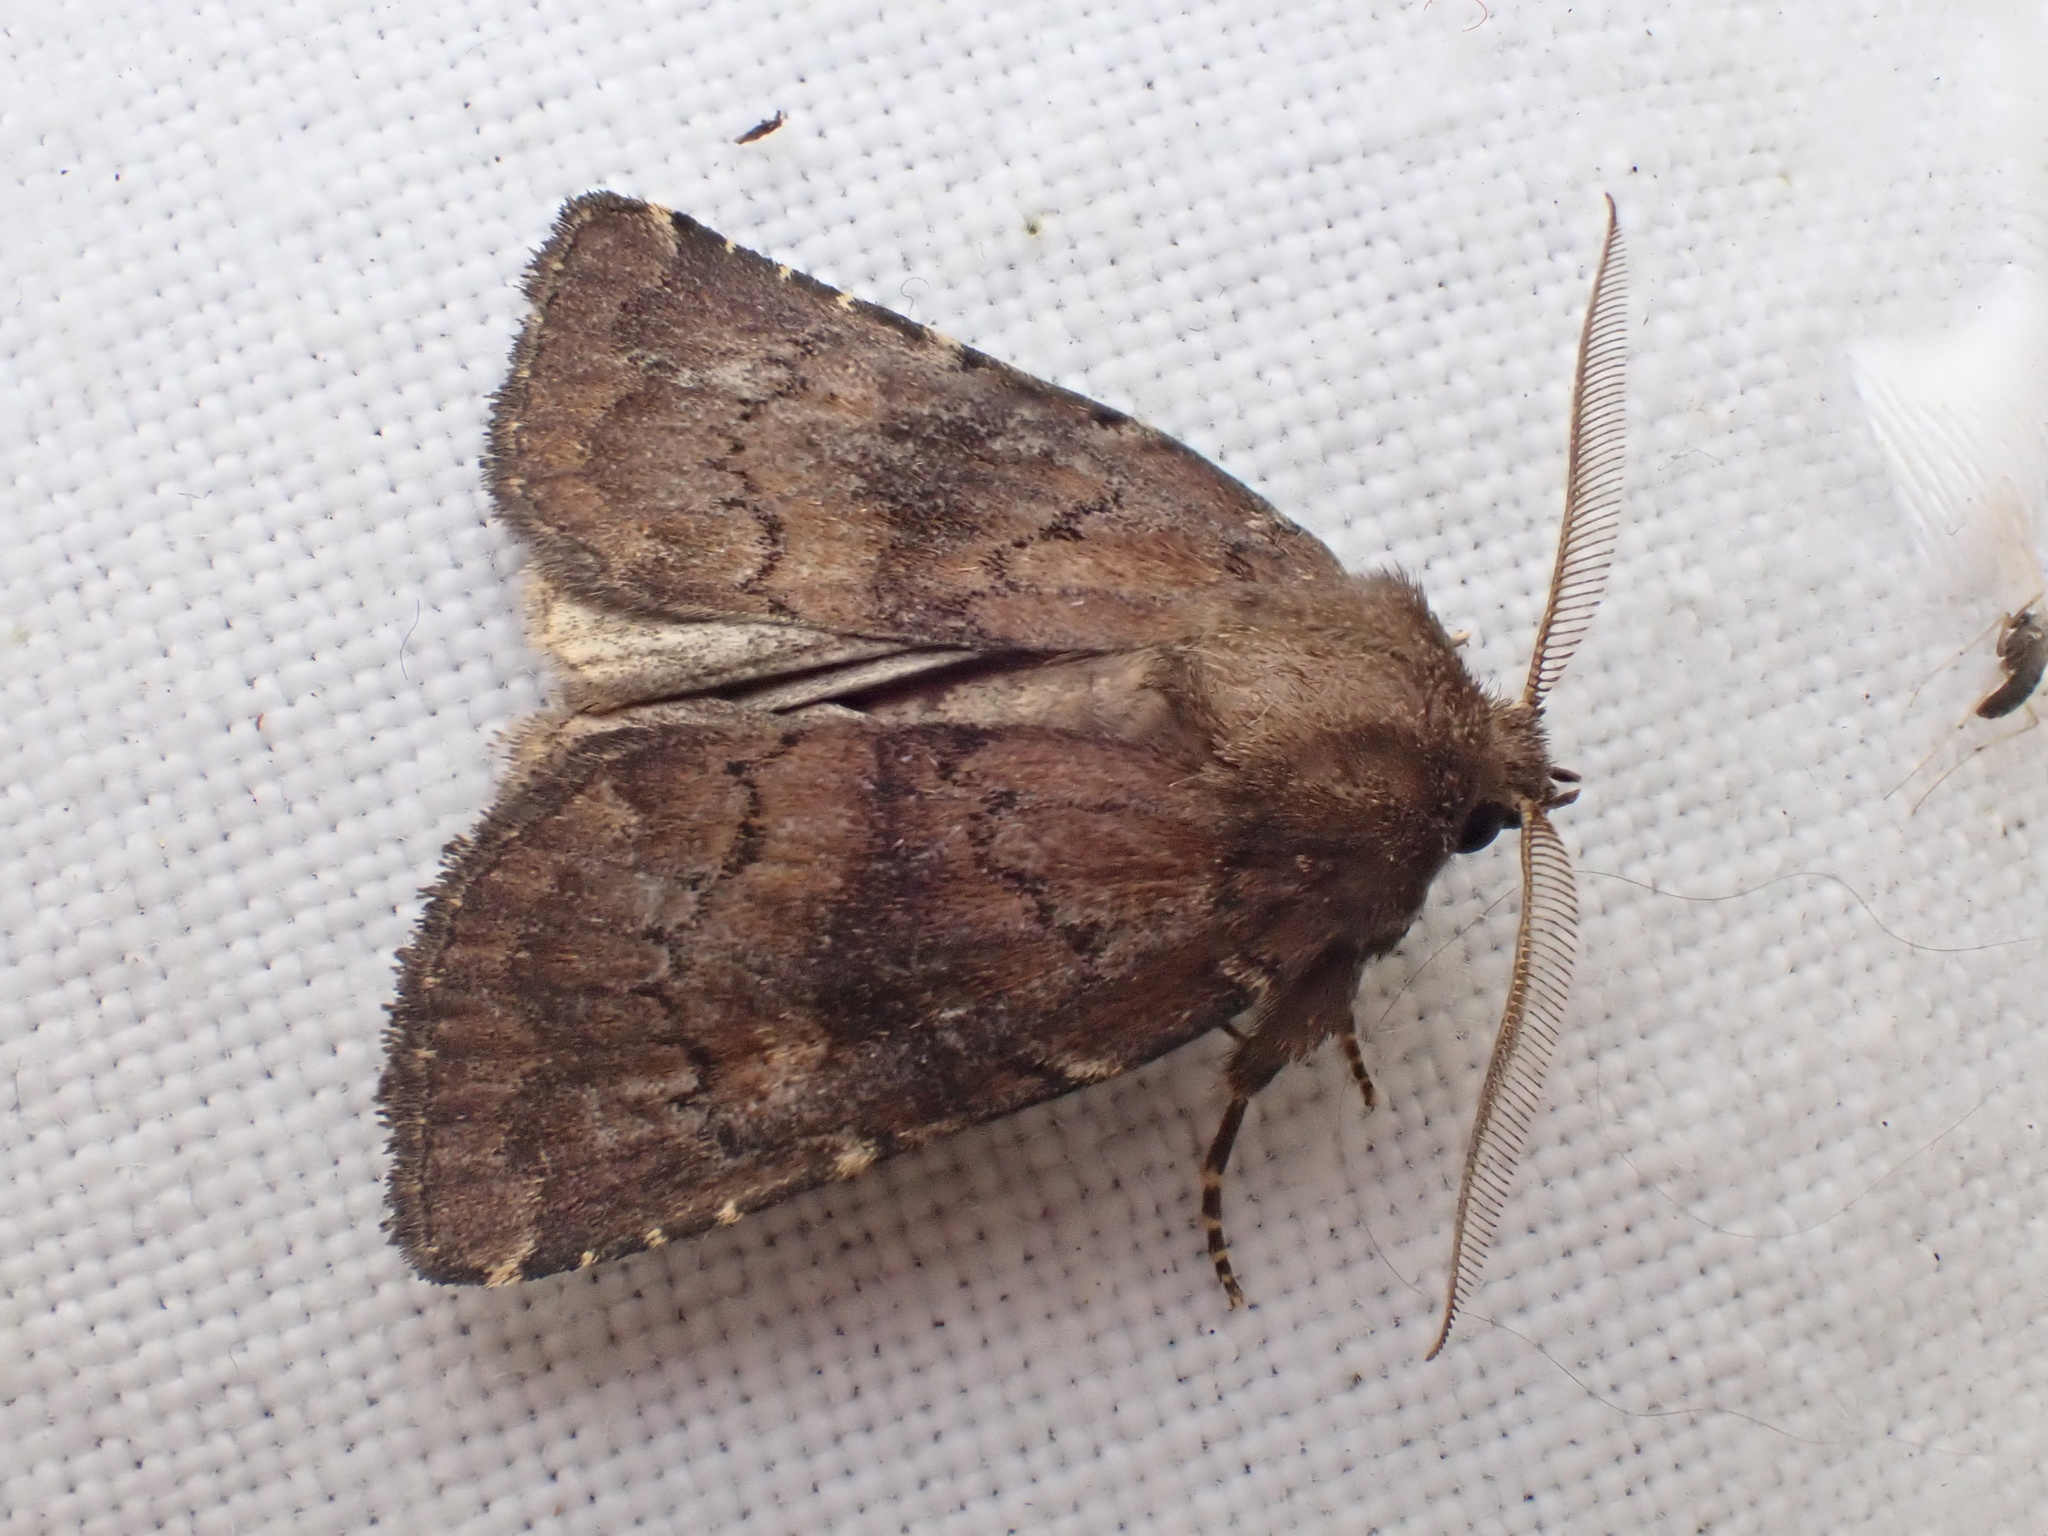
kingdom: Animalia
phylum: Arthropoda
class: Insecta
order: Lepidoptera
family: Noctuidae
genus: Charanyca
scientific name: Charanyca ferruginea
